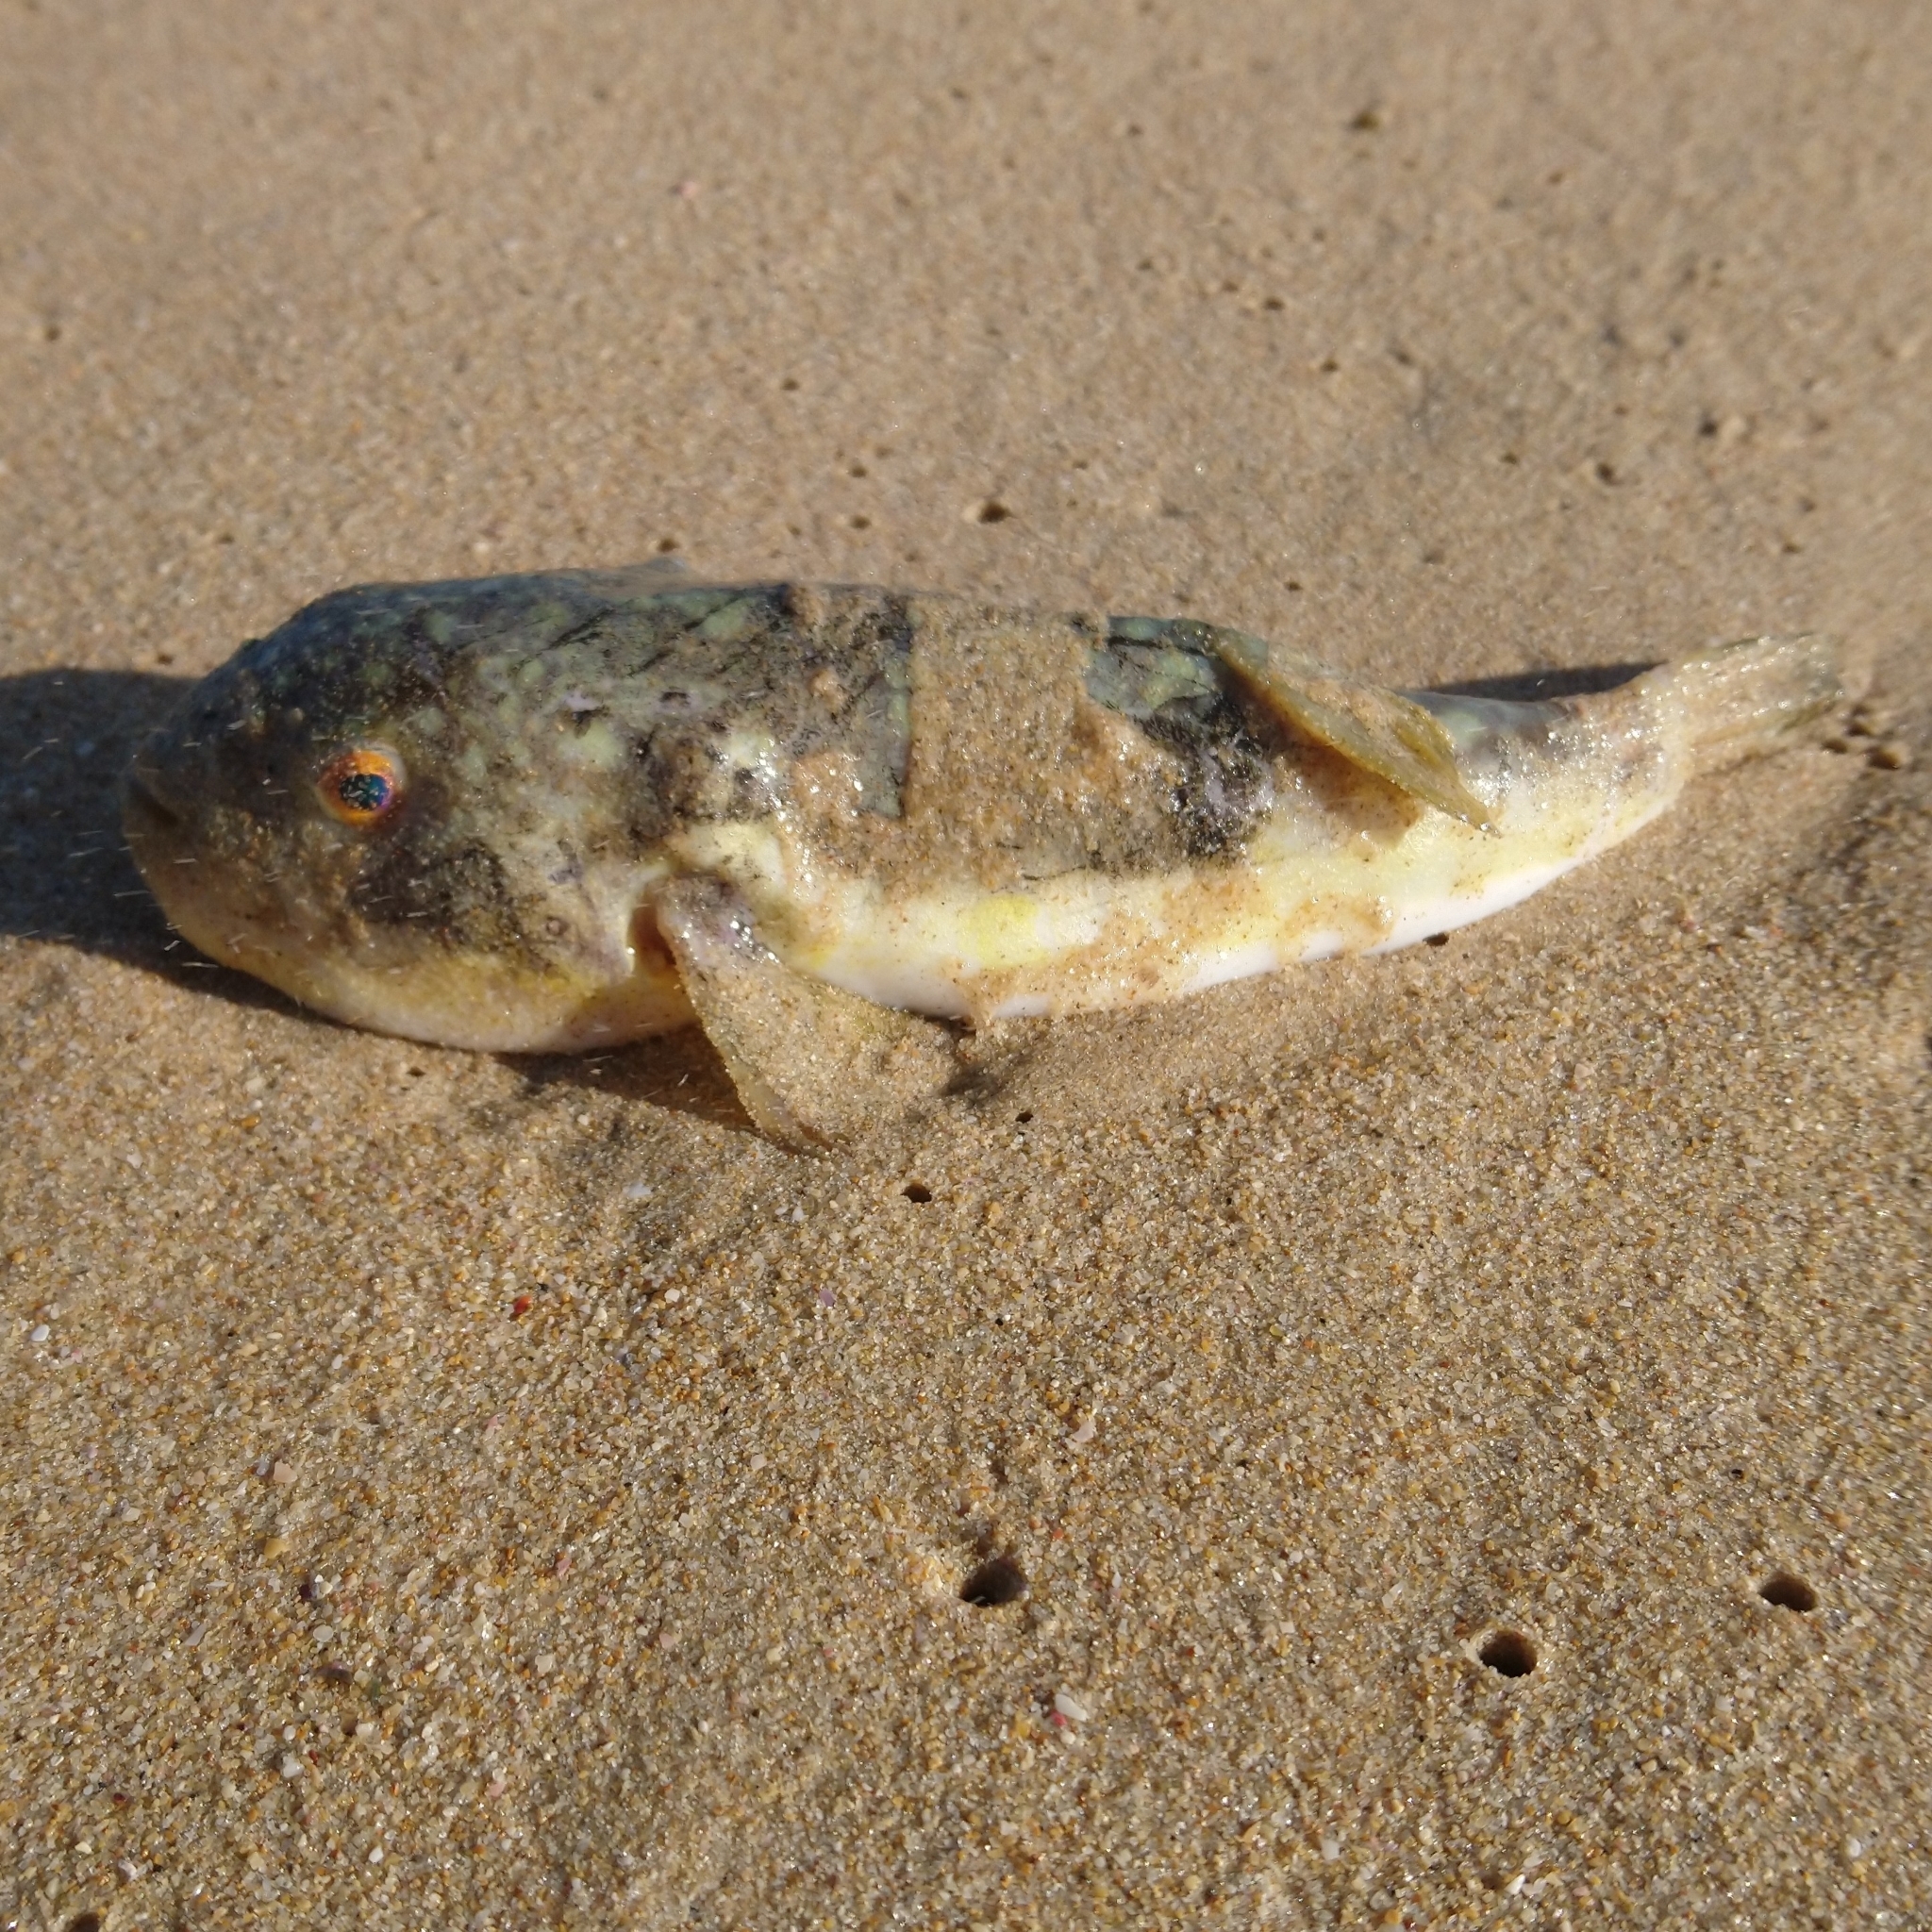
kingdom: Animalia
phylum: Chordata
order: Tetraodontiformes
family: Tetraodontidae
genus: Amblyrhynchote
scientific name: Amblyrhynchote honckenii
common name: Evileye blaasop
